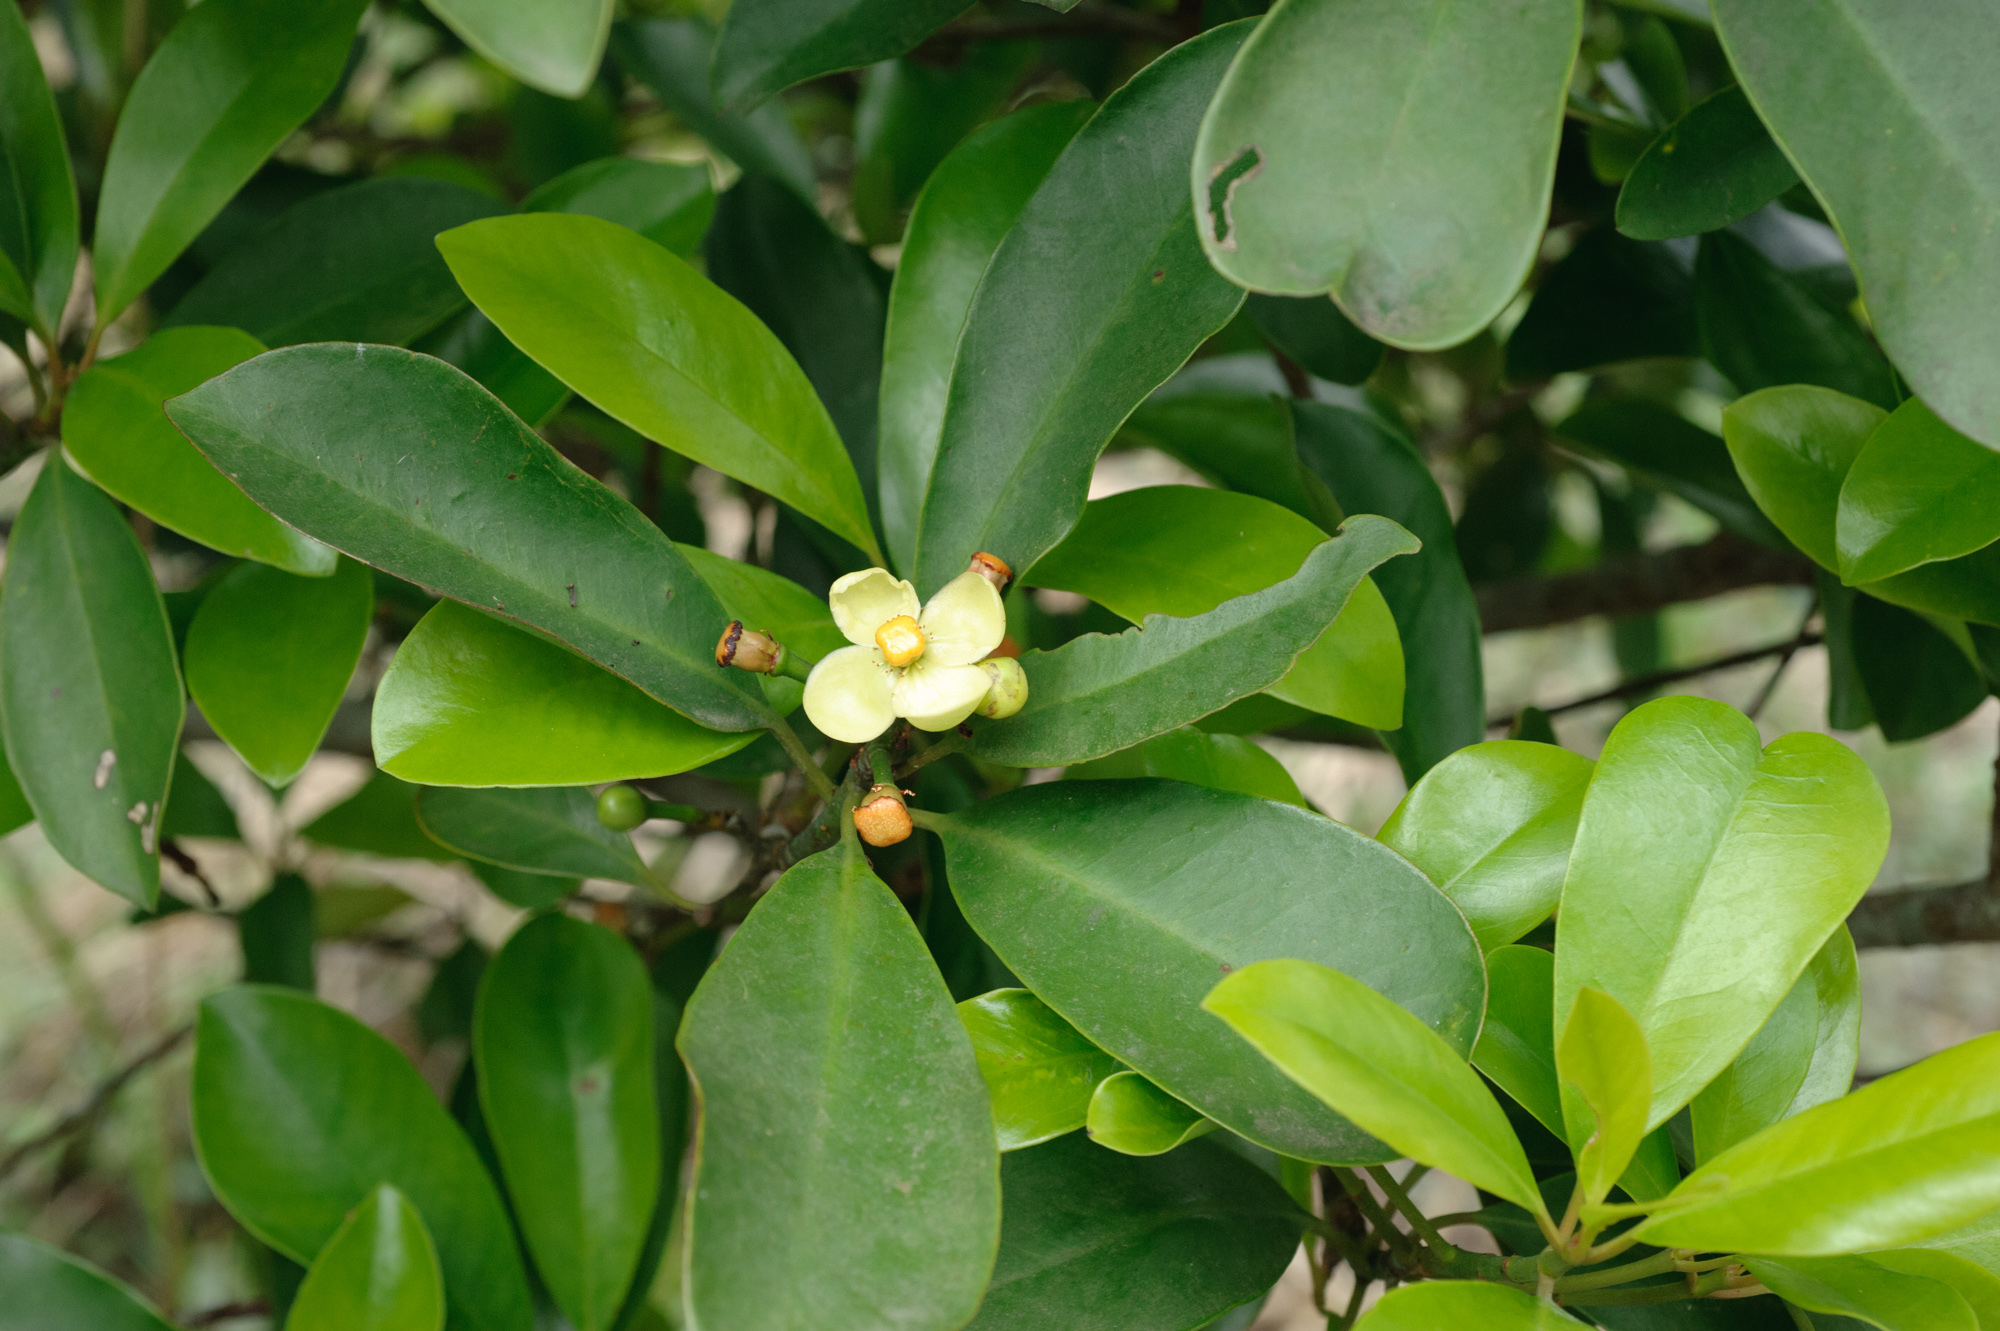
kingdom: Plantae
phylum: Tracheophyta
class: Magnoliopsida
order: Malpighiales
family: Clusiaceae
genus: Garcinia
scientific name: Garcinia multiflora
